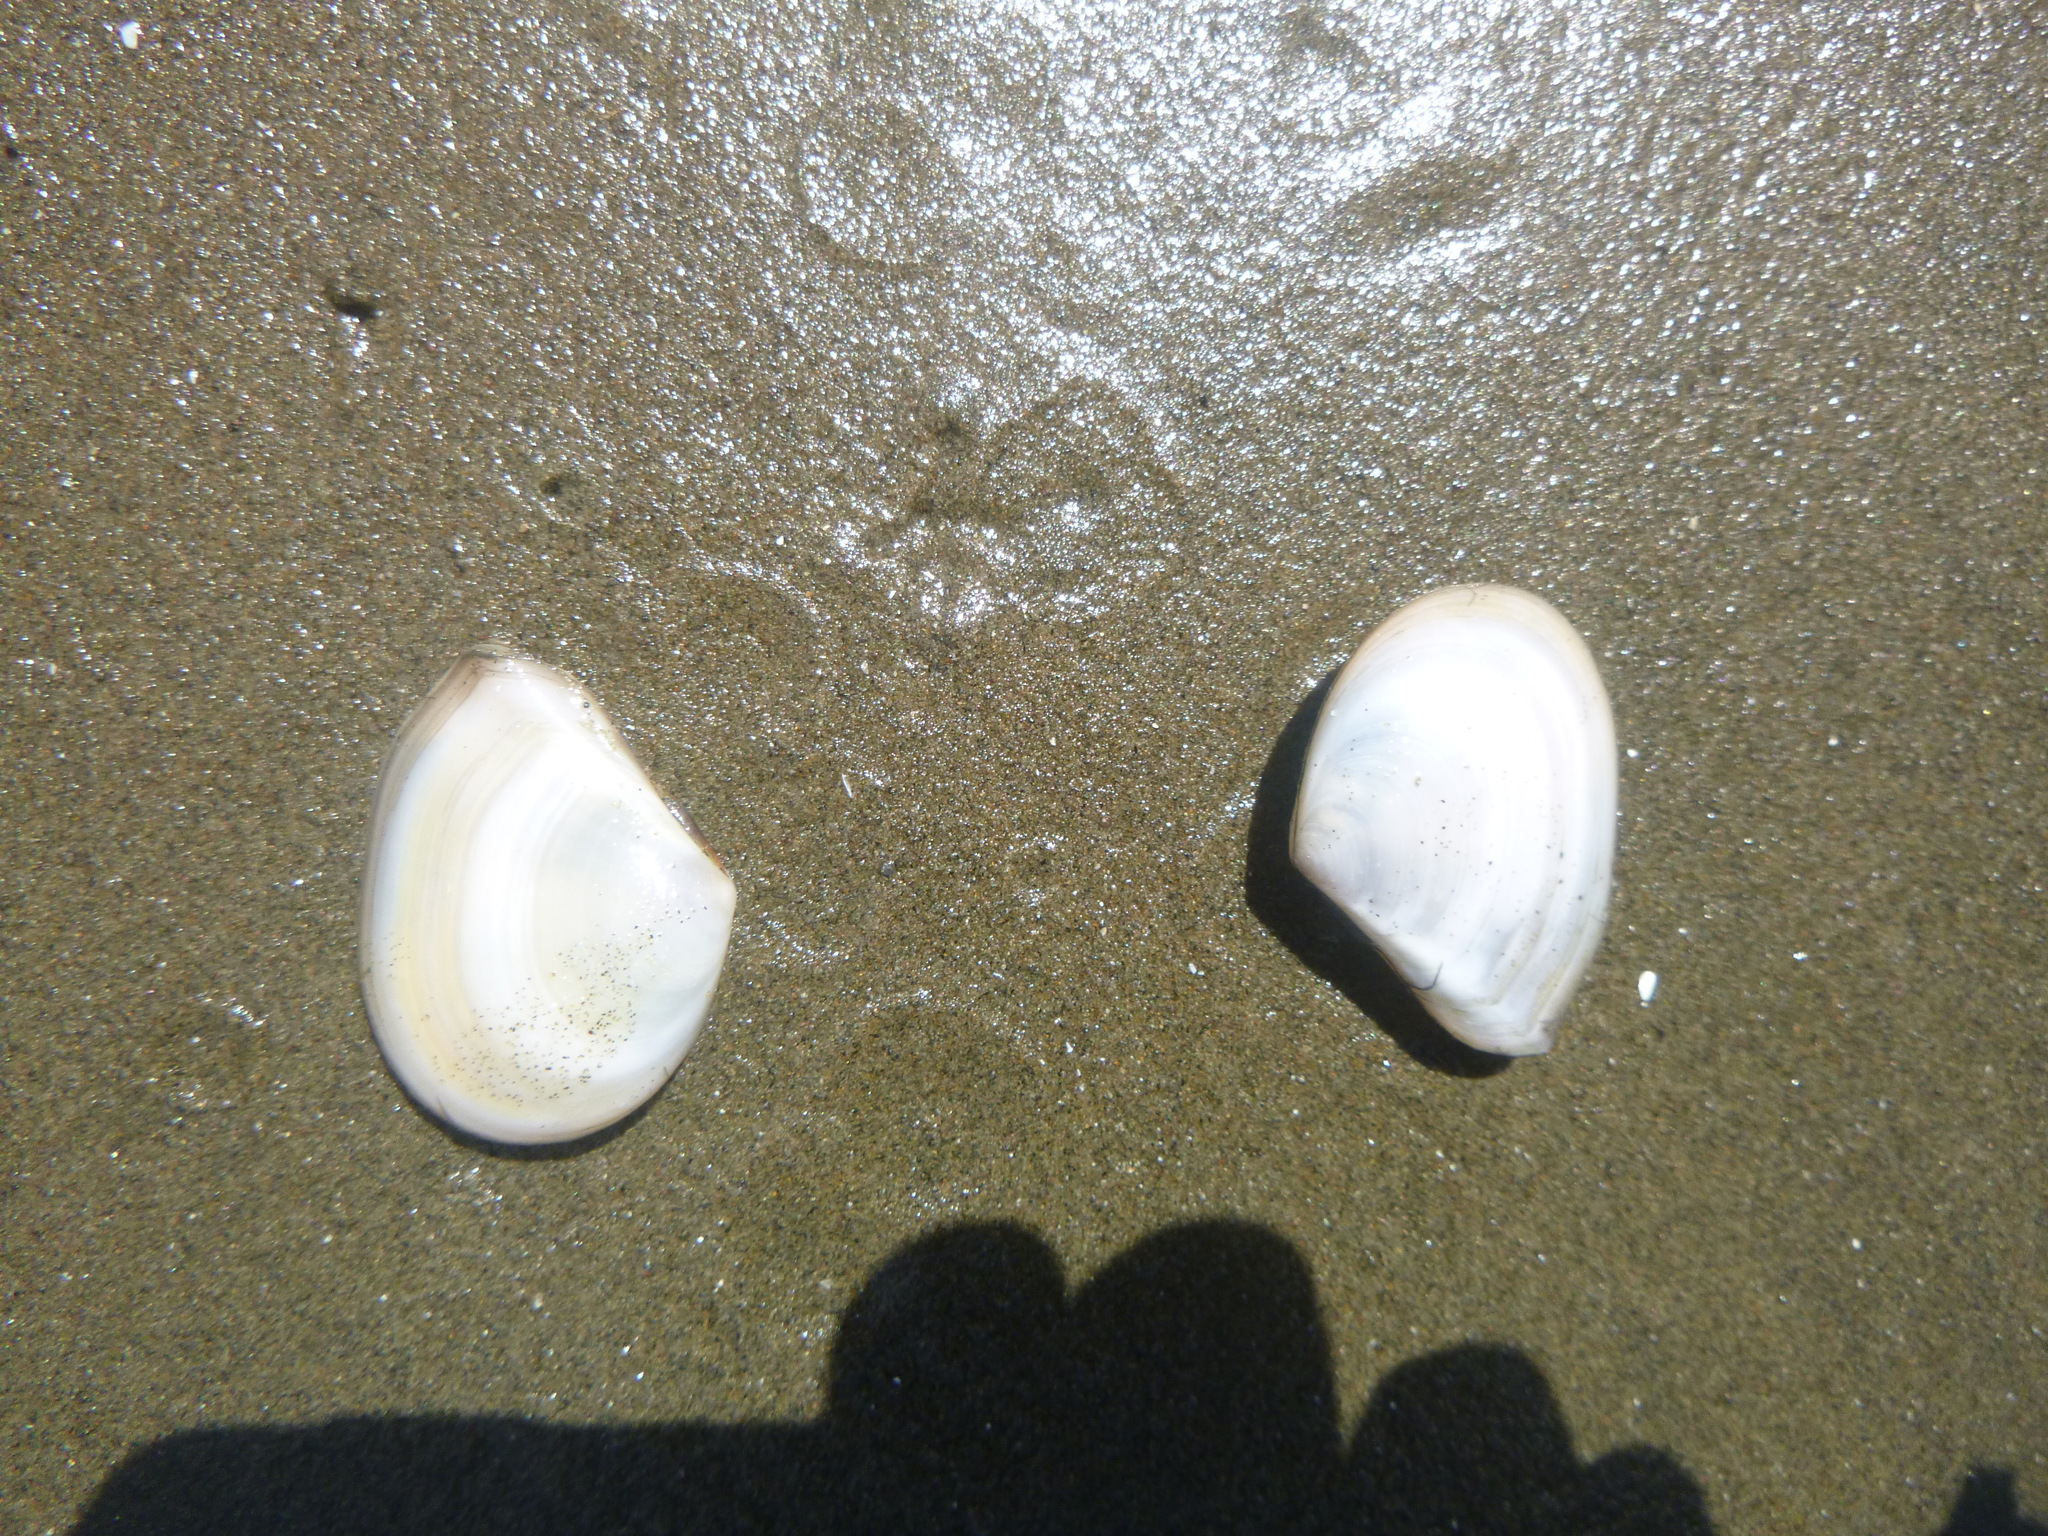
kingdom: Animalia
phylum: Mollusca
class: Bivalvia
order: Cardiida
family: Tellinidae
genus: Macomona
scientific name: Macomona liliana
